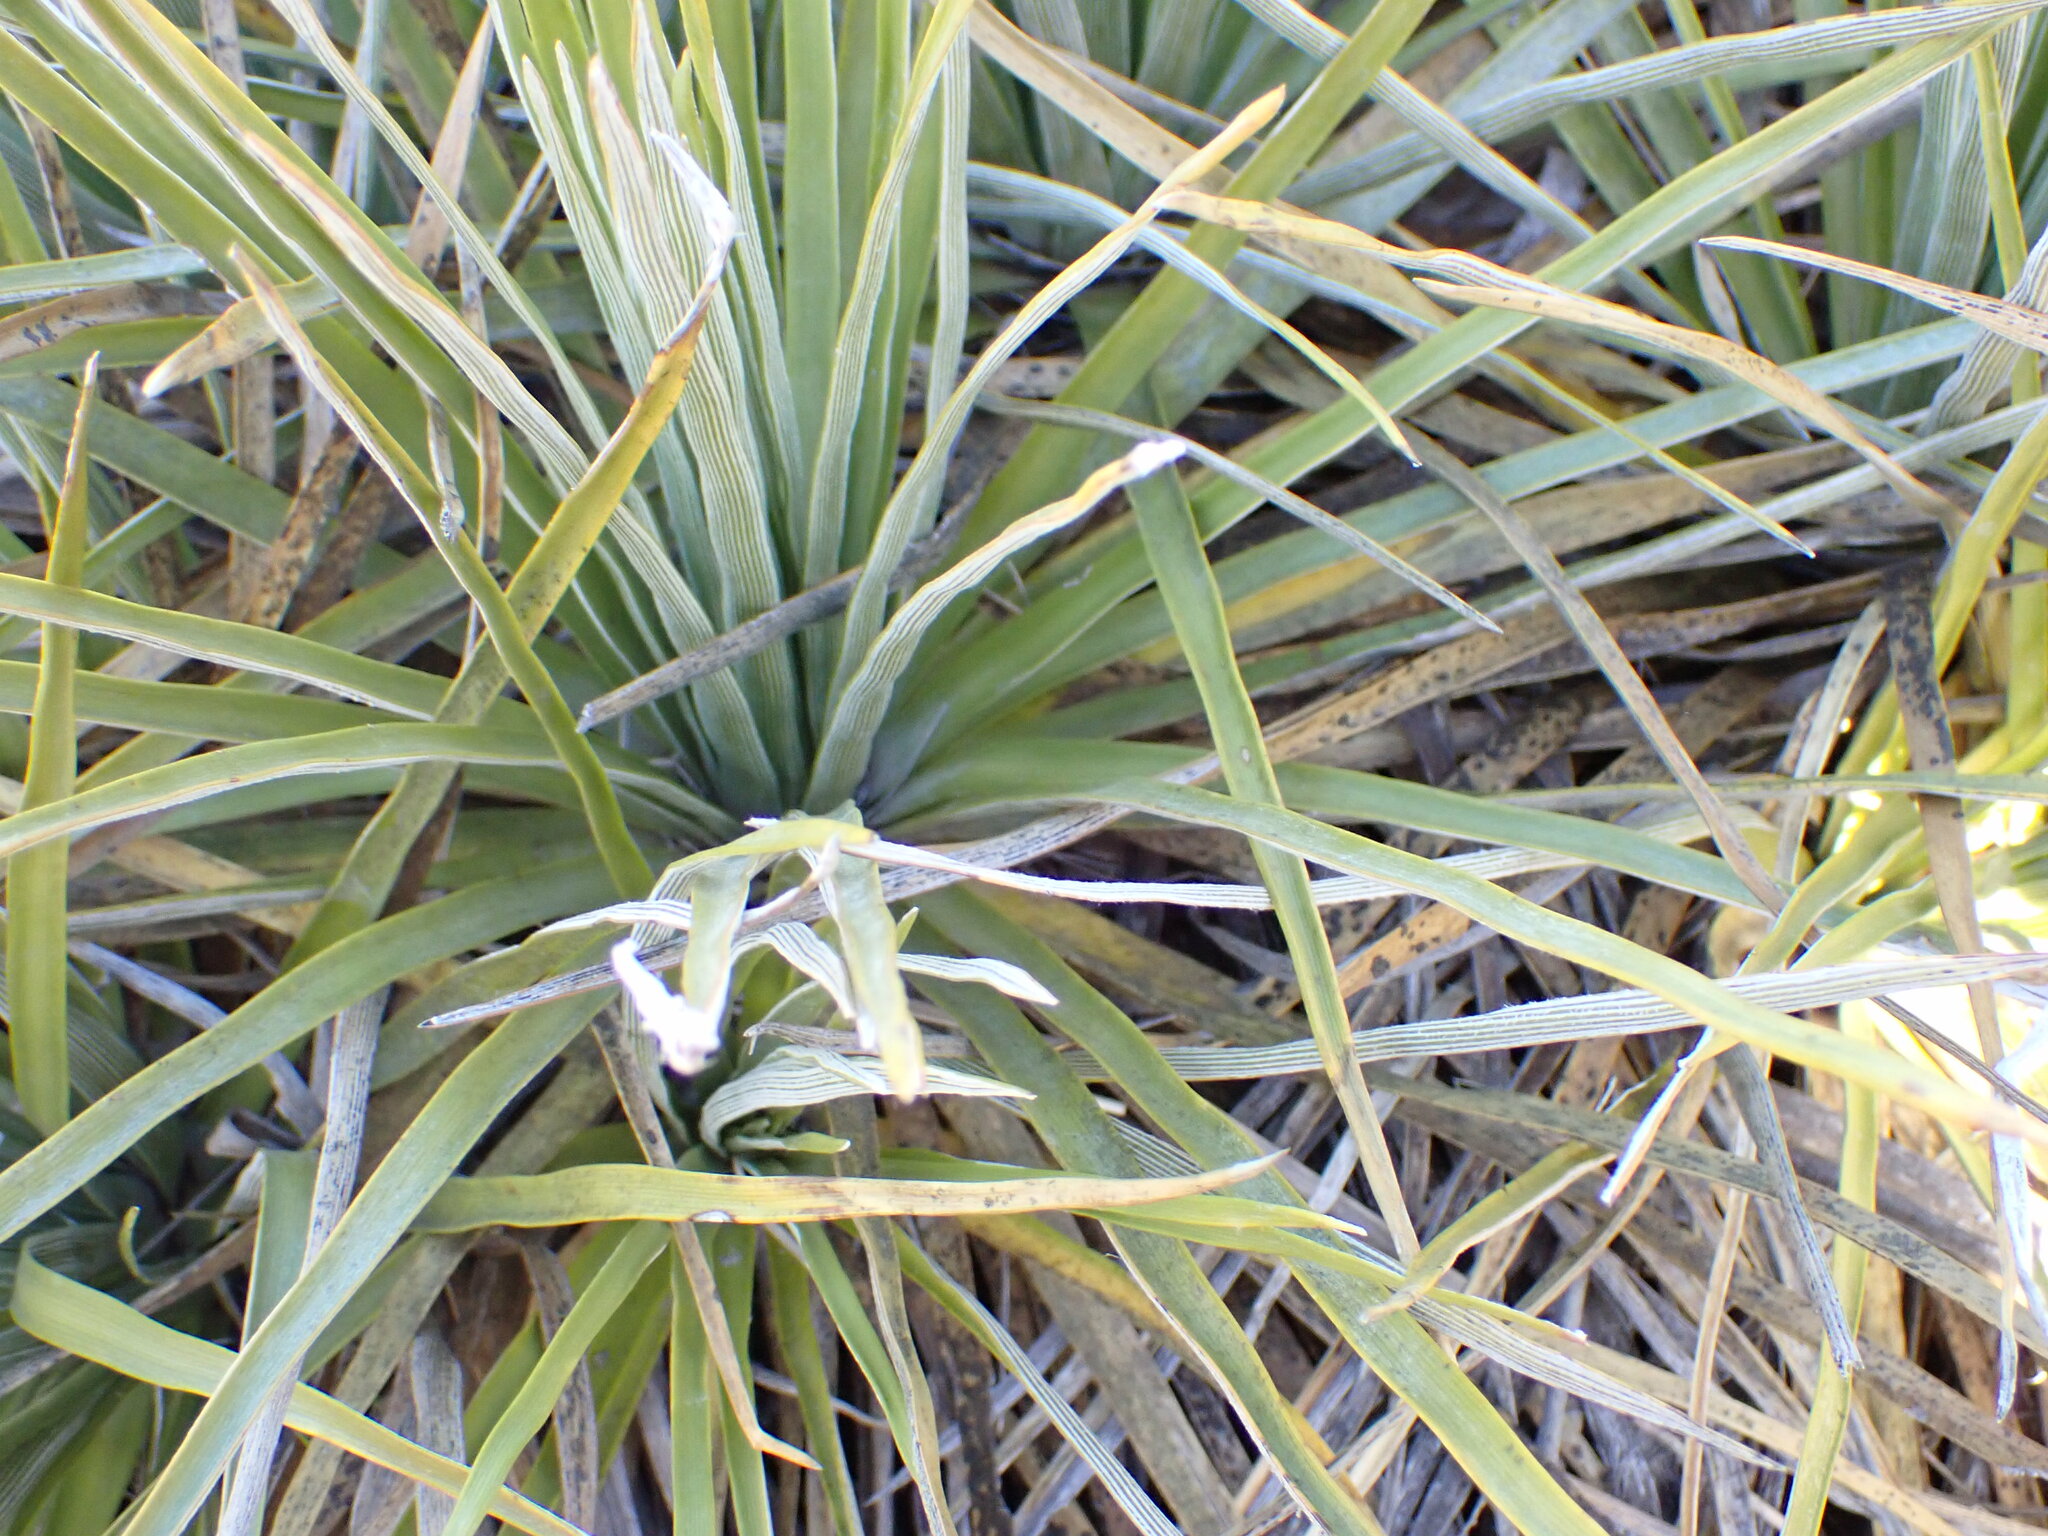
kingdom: Plantae
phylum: Tracheophyta
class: Magnoliopsida
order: Asterales
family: Asteraceae
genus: Celmisia
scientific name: Celmisia lyallii
